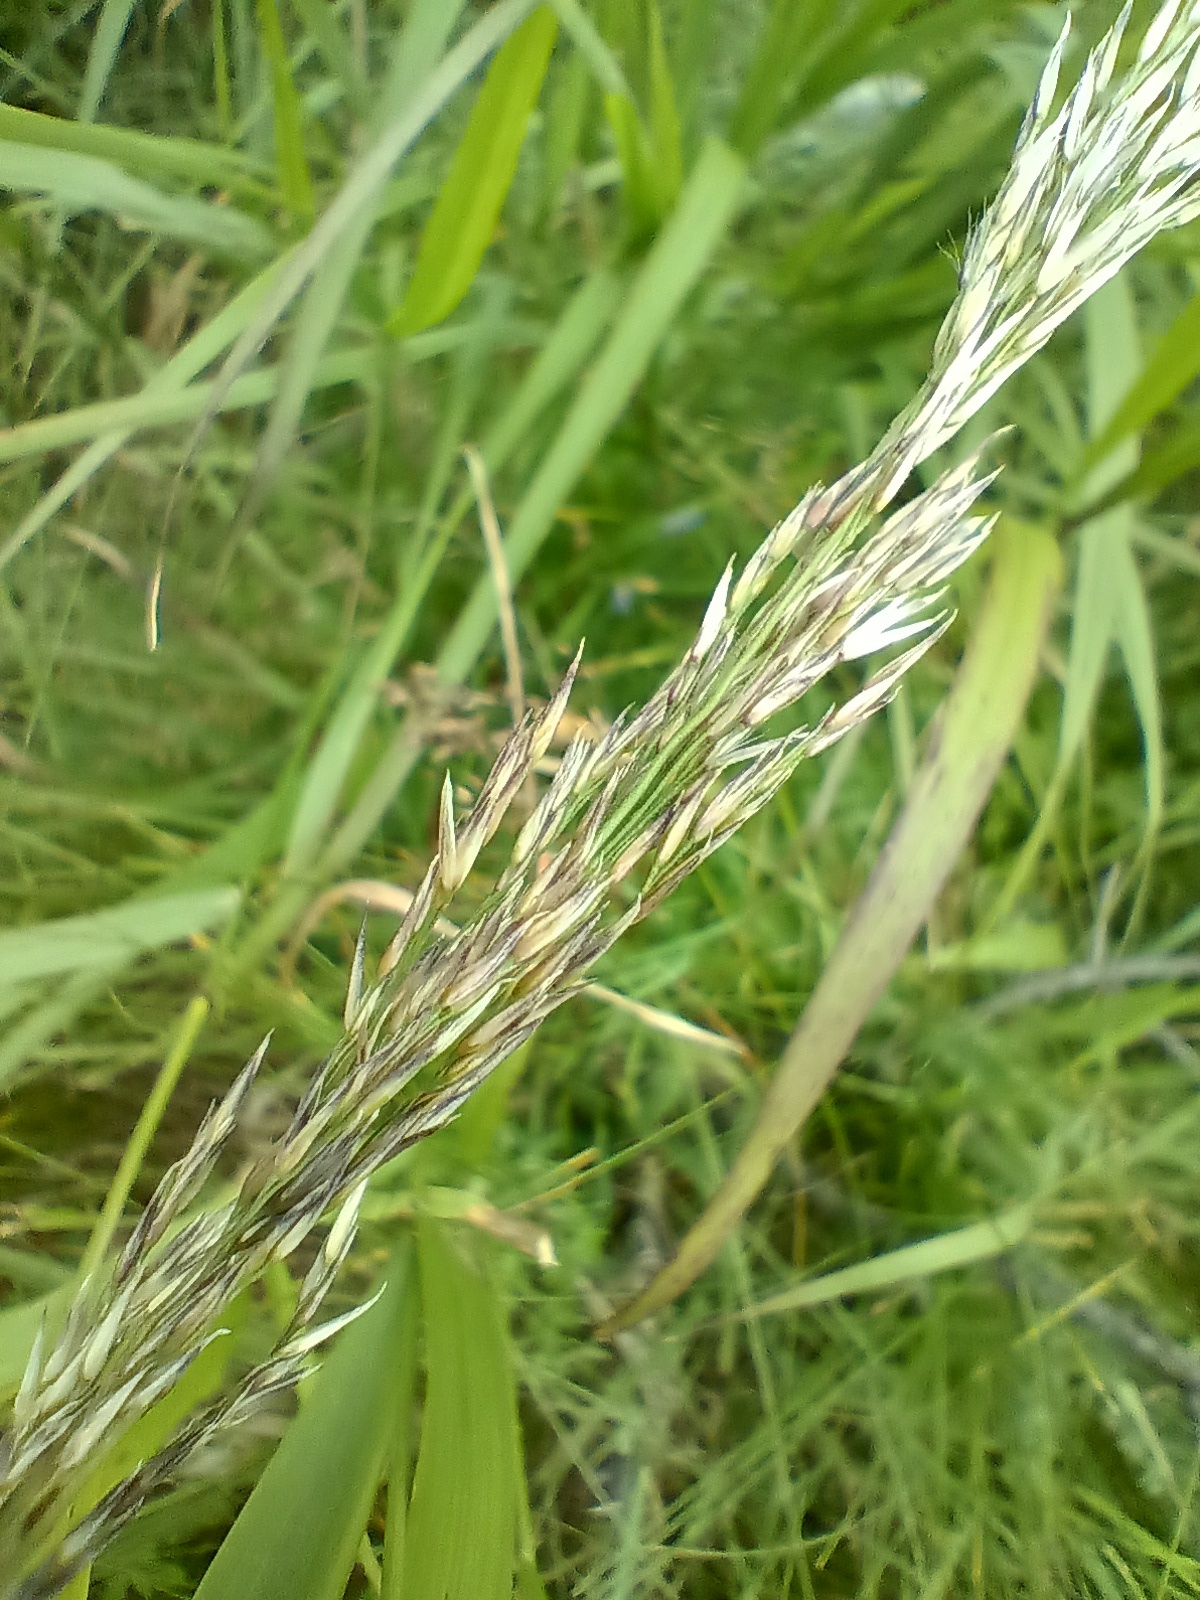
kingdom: Plantae
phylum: Tracheophyta
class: Liliopsida
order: Poales
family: Poaceae
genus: Calamagrostis
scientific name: Calamagrostis villosa
